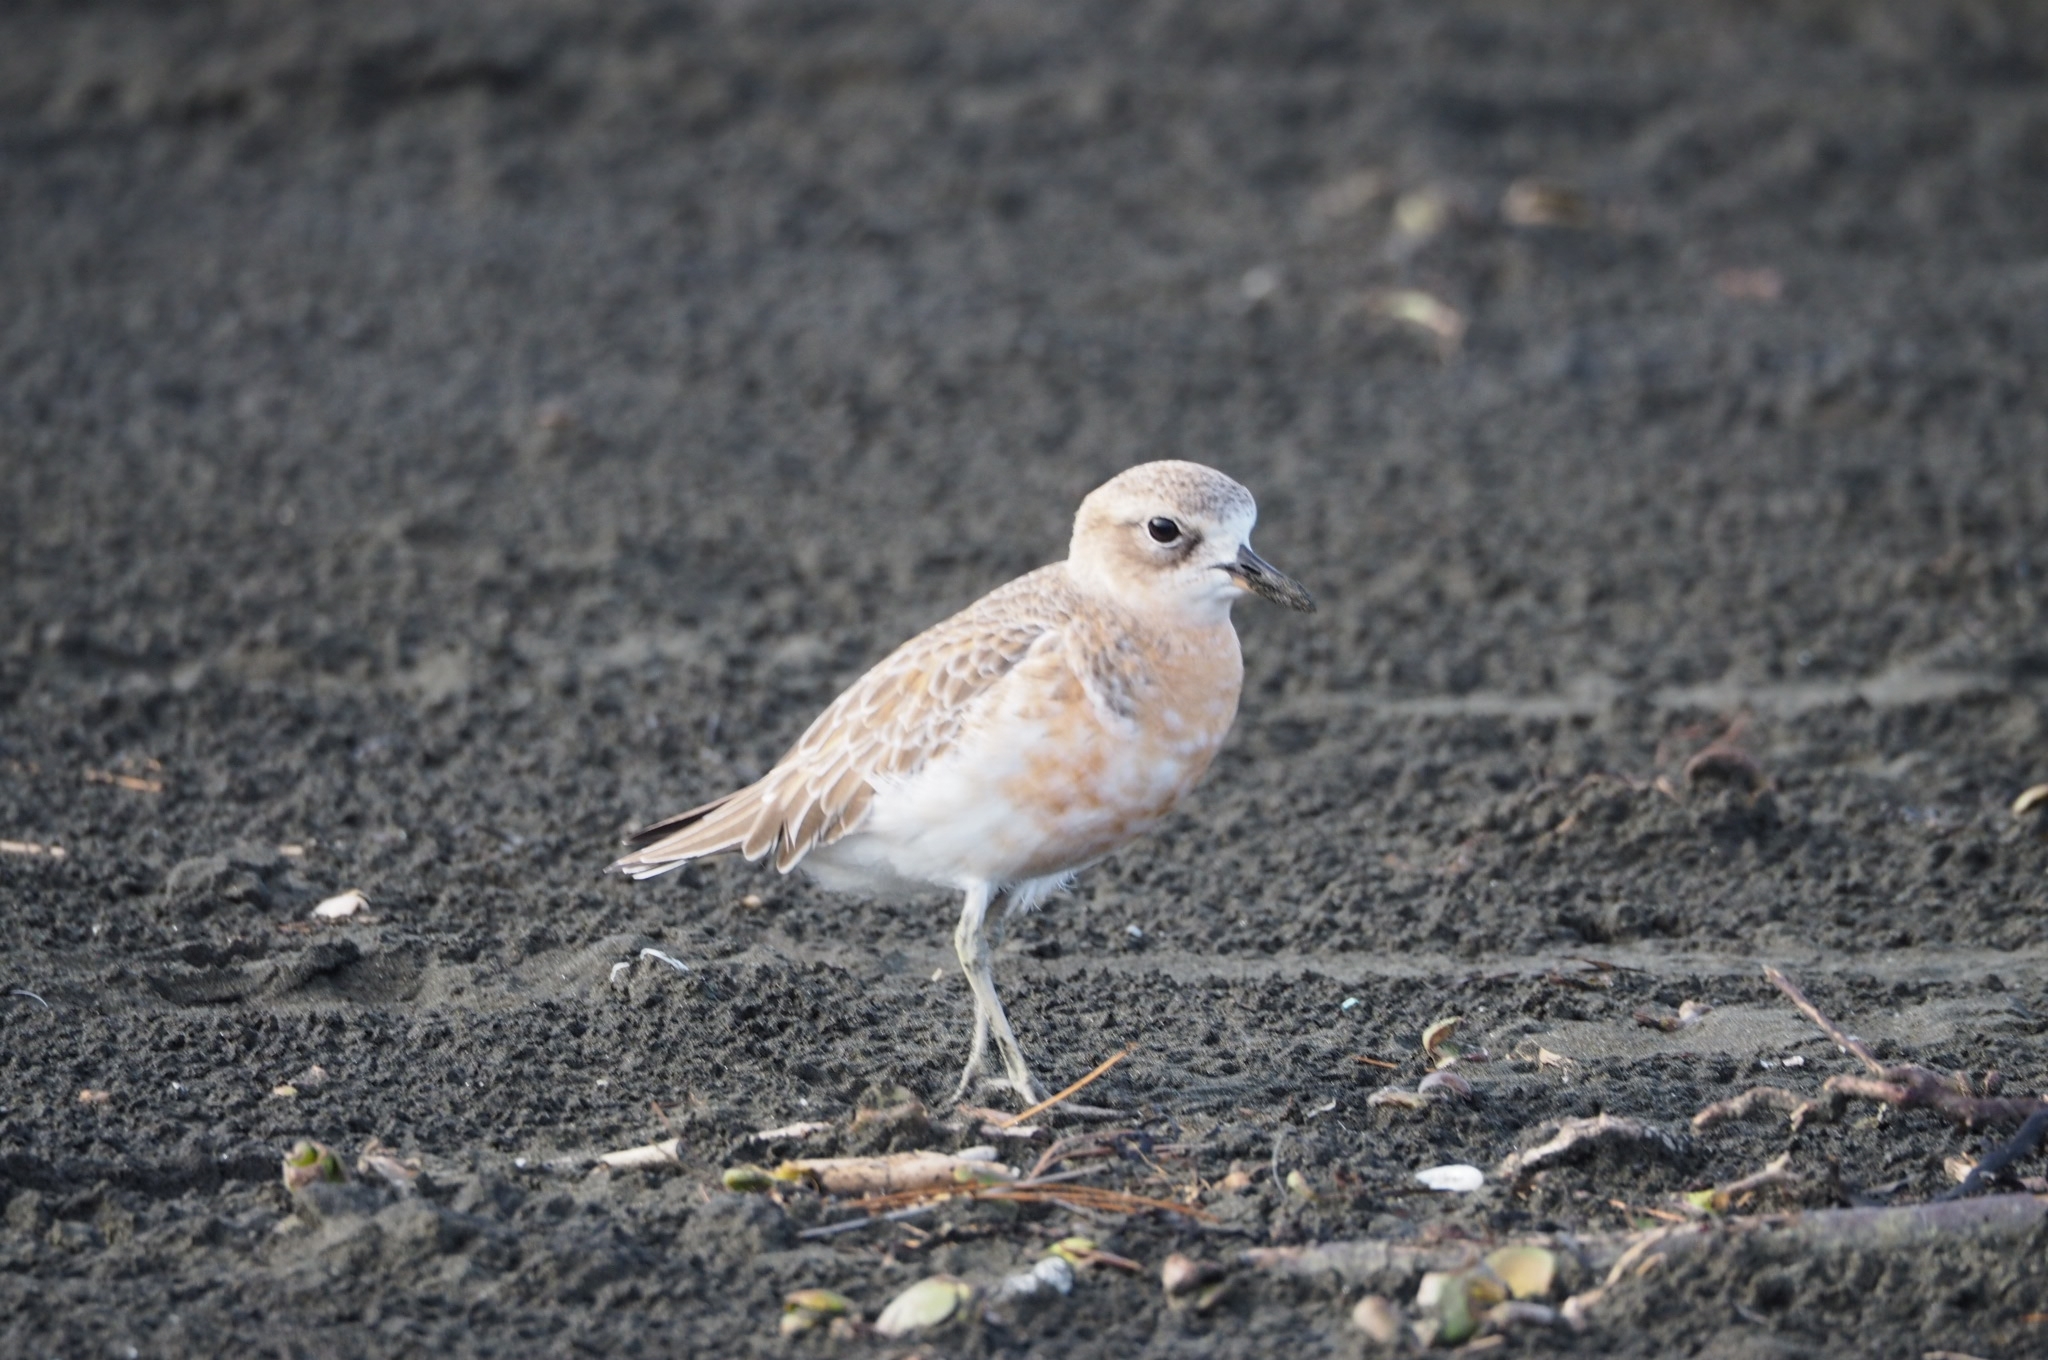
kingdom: Animalia
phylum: Chordata
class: Aves
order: Charadriiformes
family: Charadriidae
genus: Anarhynchus
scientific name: Anarhynchus
